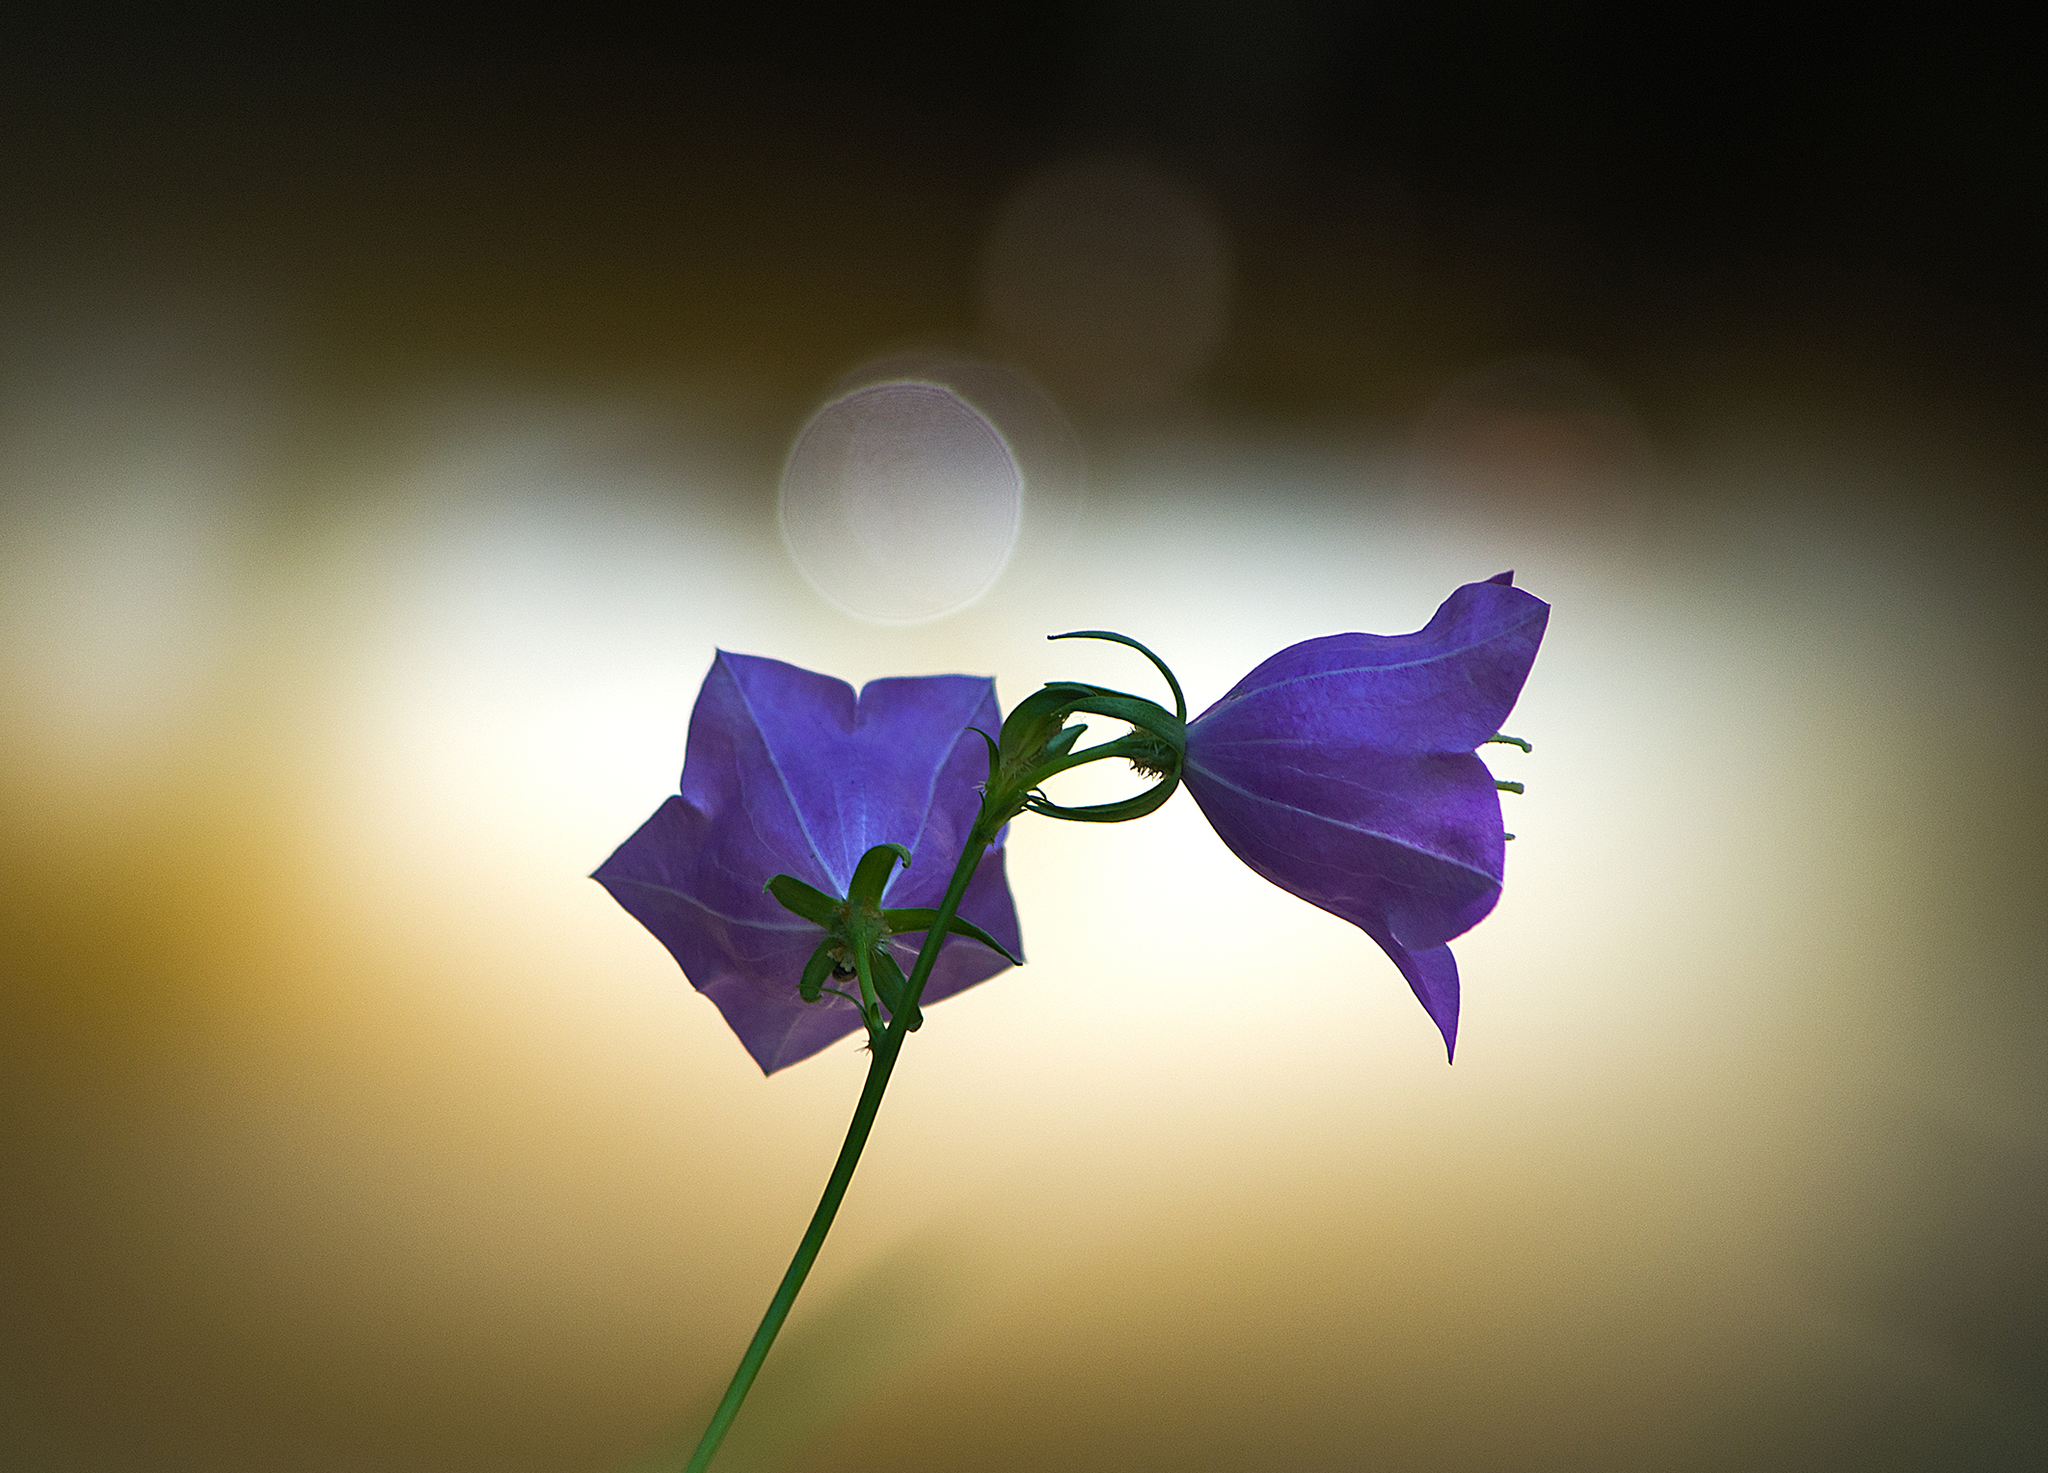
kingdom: Plantae
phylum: Tracheophyta
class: Magnoliopsida
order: Asterales
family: Campanulaceae
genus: Campanula
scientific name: Campanula persicifolia
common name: Peach-leaved bellflower
